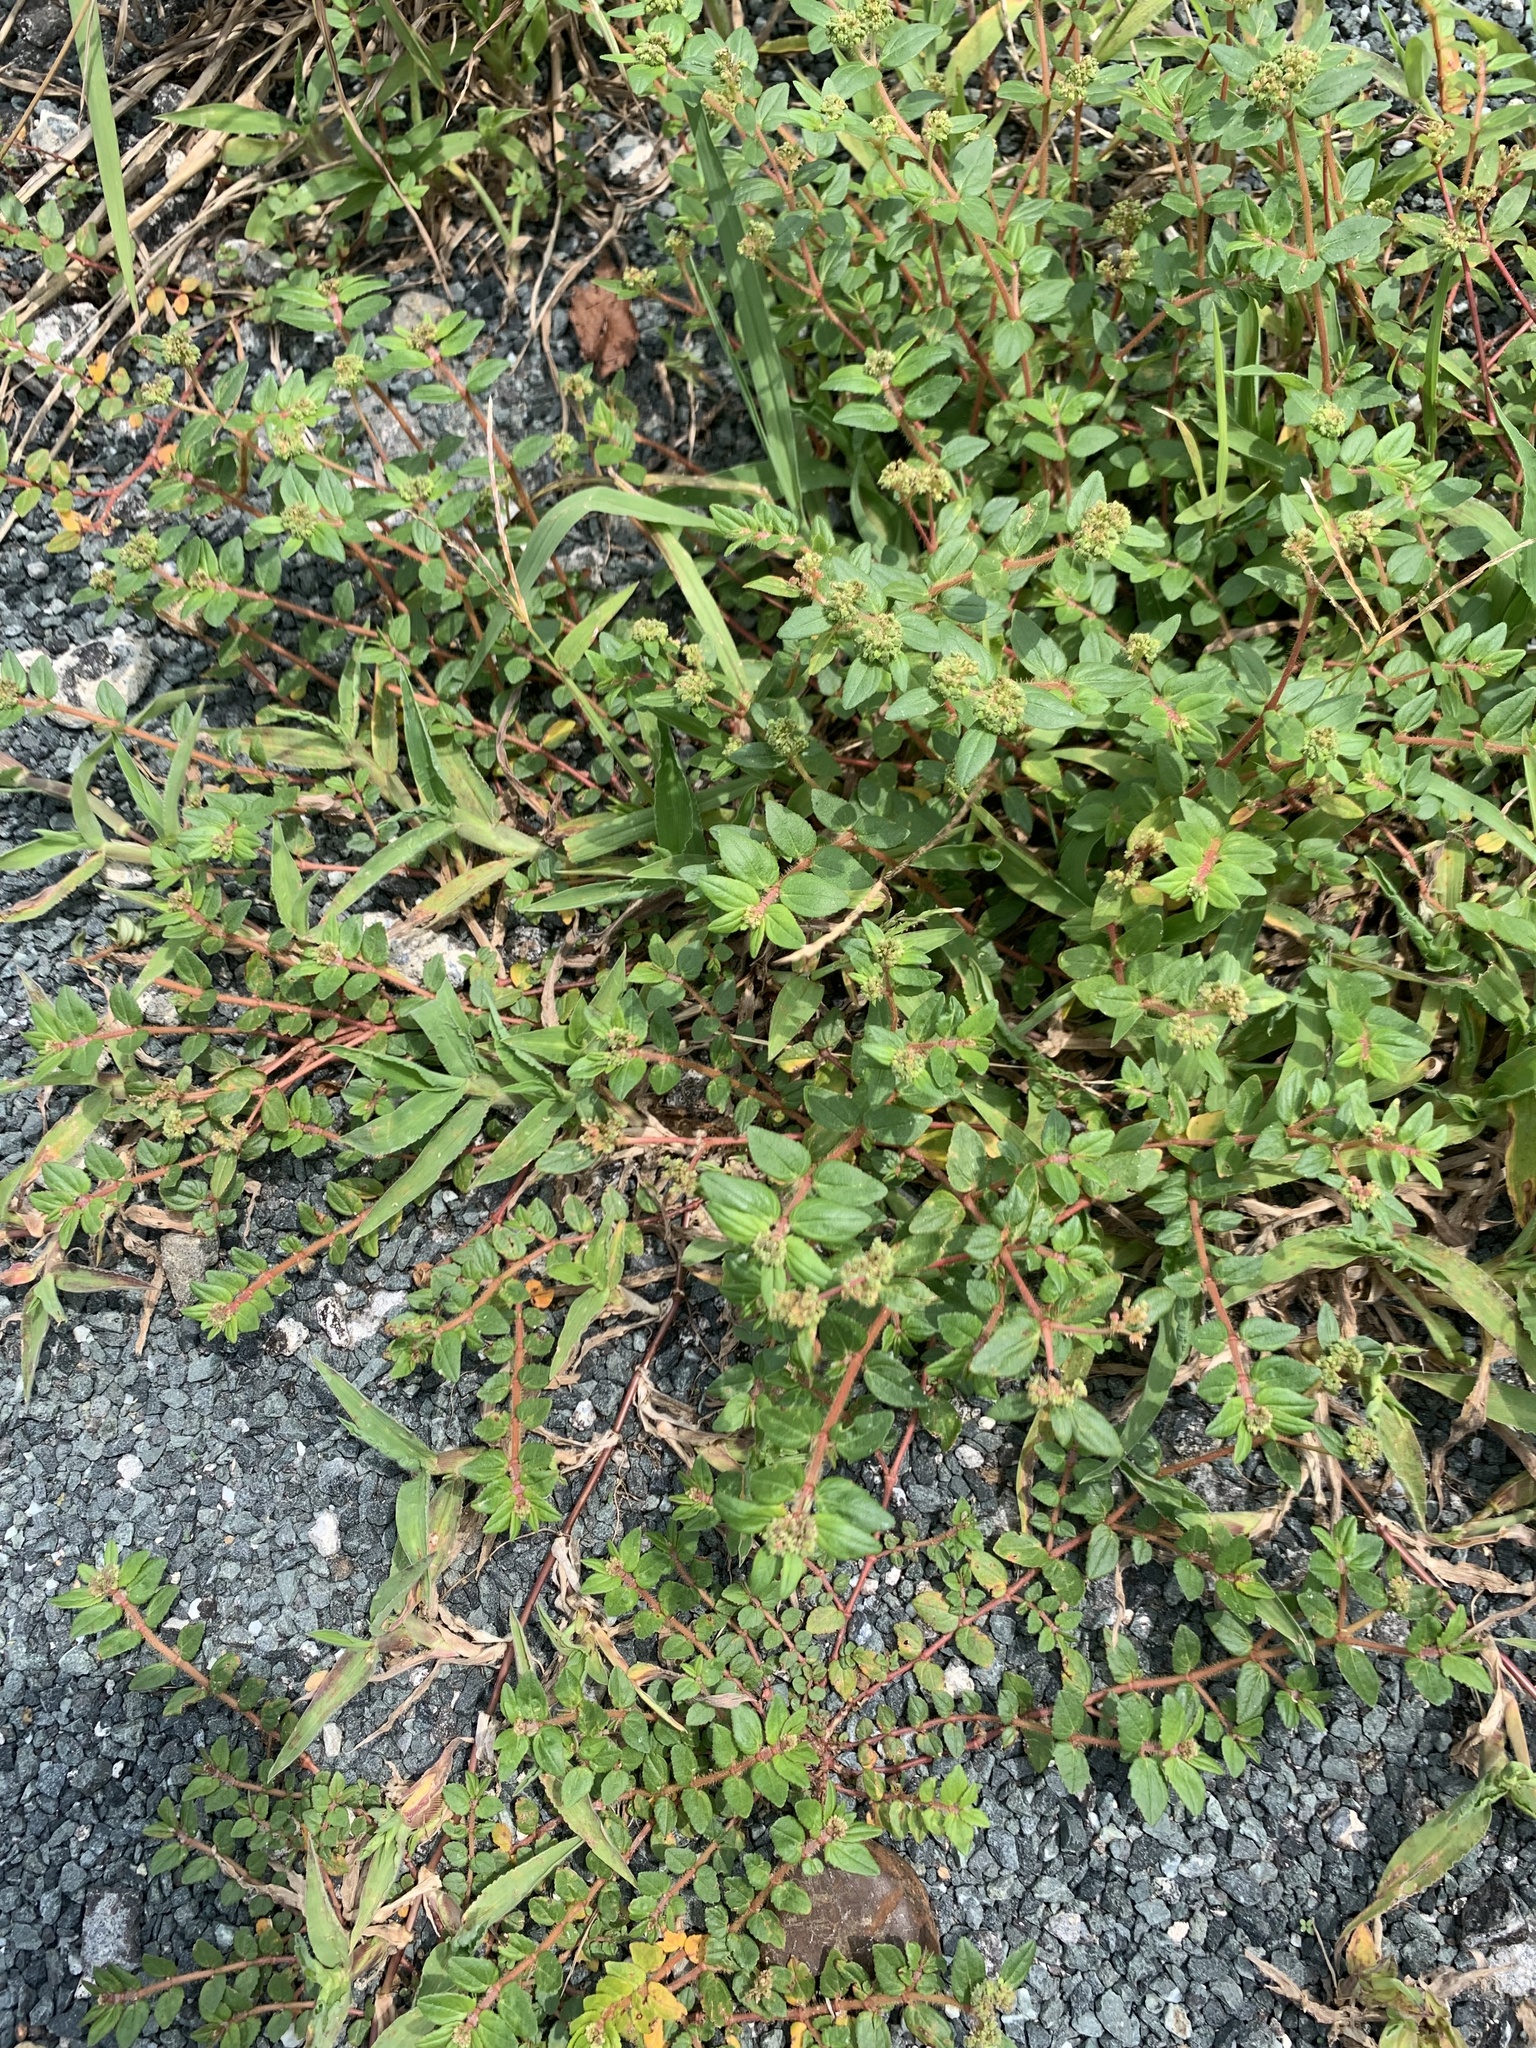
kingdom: Plantae
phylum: Tracheophyta
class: Magnoliopsida
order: Malpighiales
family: Euphorbiaceae
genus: Euphorbia
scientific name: Euphorbia ophthalmica
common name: Florida hammock sandmat
